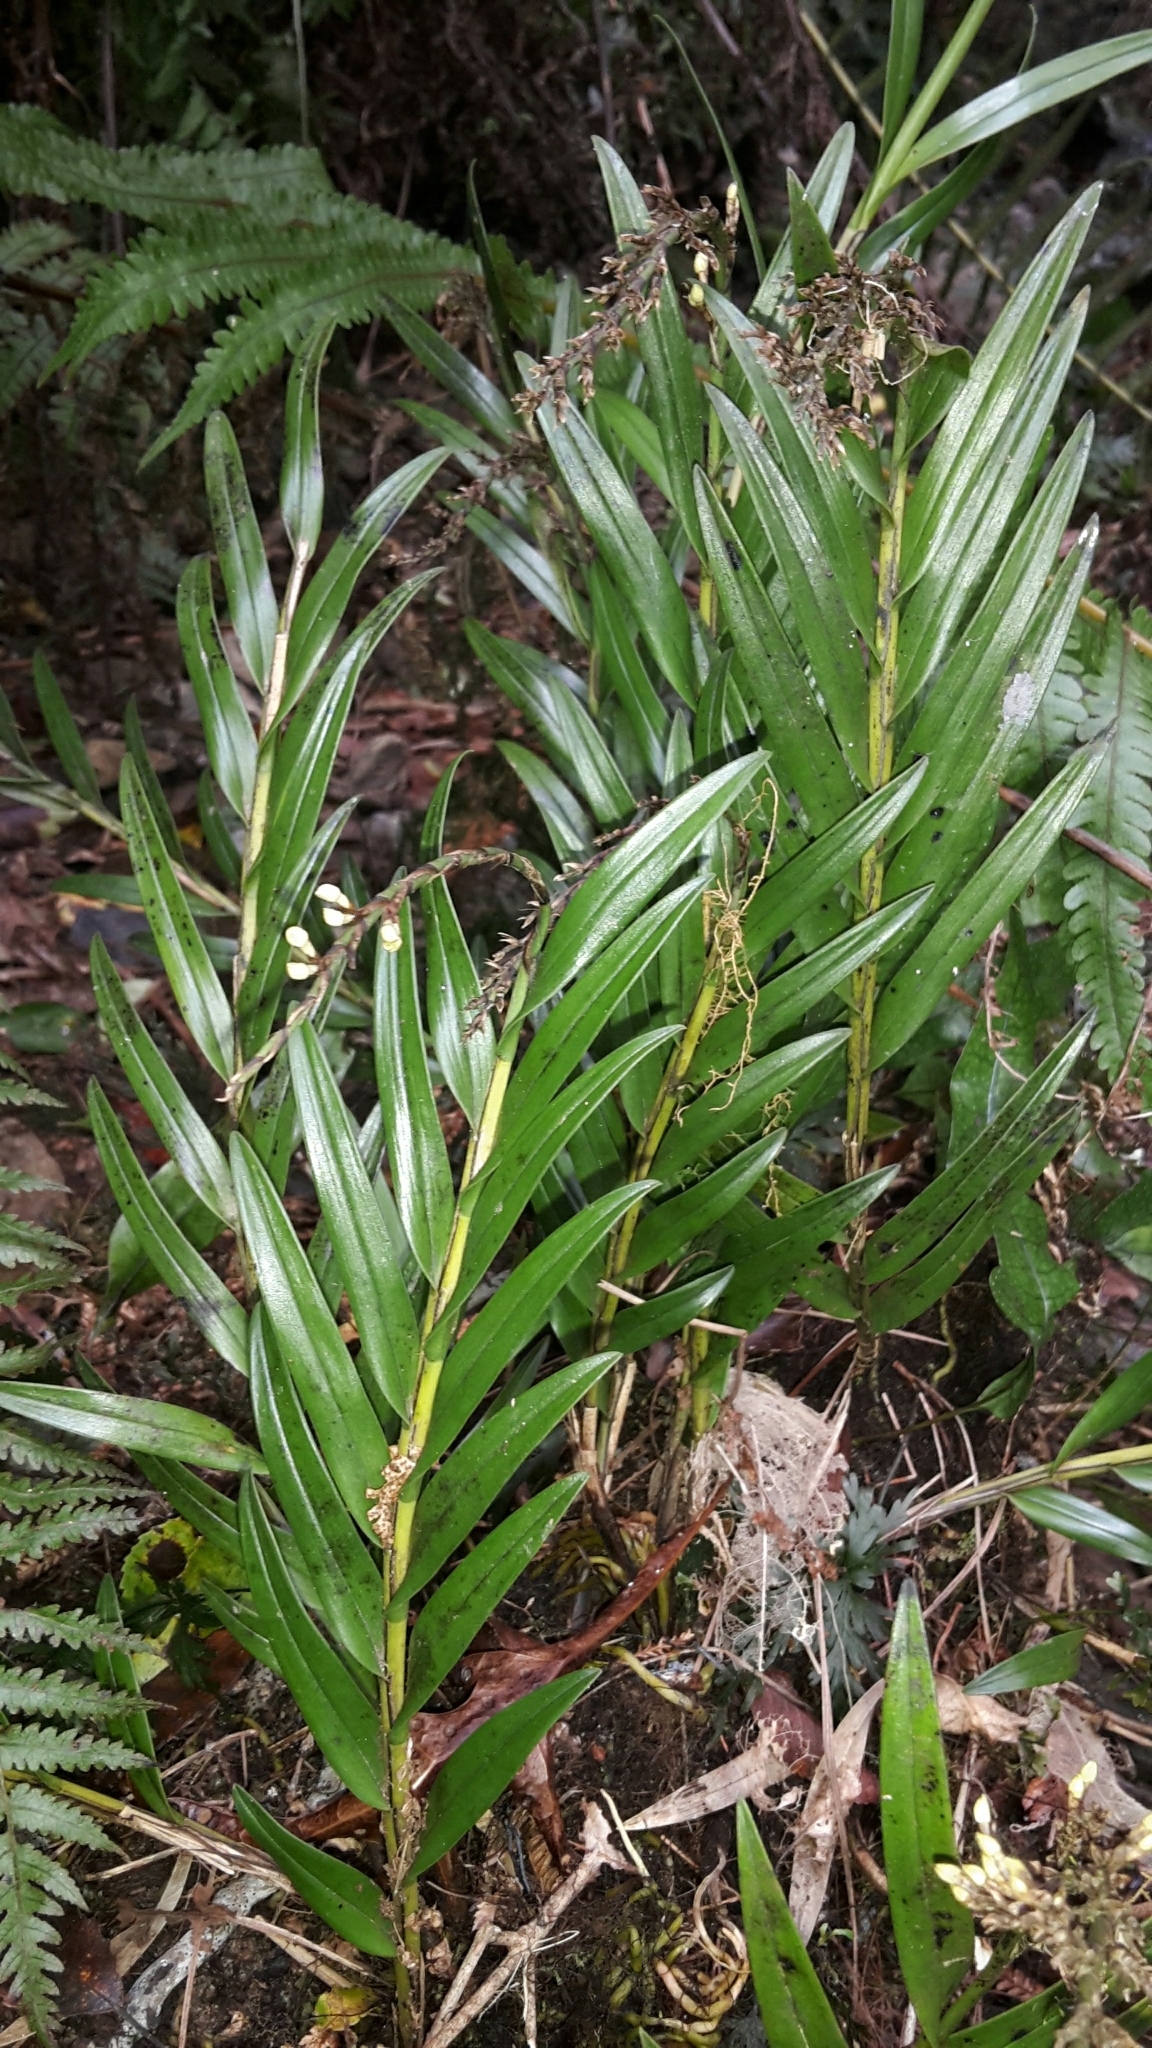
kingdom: Plantae
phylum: Tracheophyta
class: Liliopsida
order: Asparagales
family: Orchidaceae
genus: Earina
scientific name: Earina autumnalis
